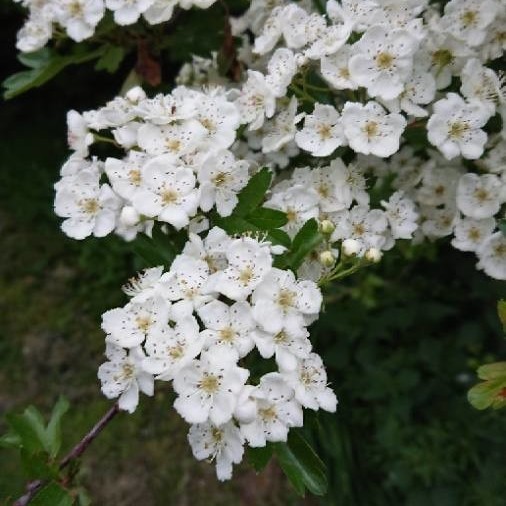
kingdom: Plantae
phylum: Tracheophyta
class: Magnoliopsida
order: Rosales
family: Rosaceae
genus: Crataegus
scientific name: Crataegus monogyna
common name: Hawthorn
